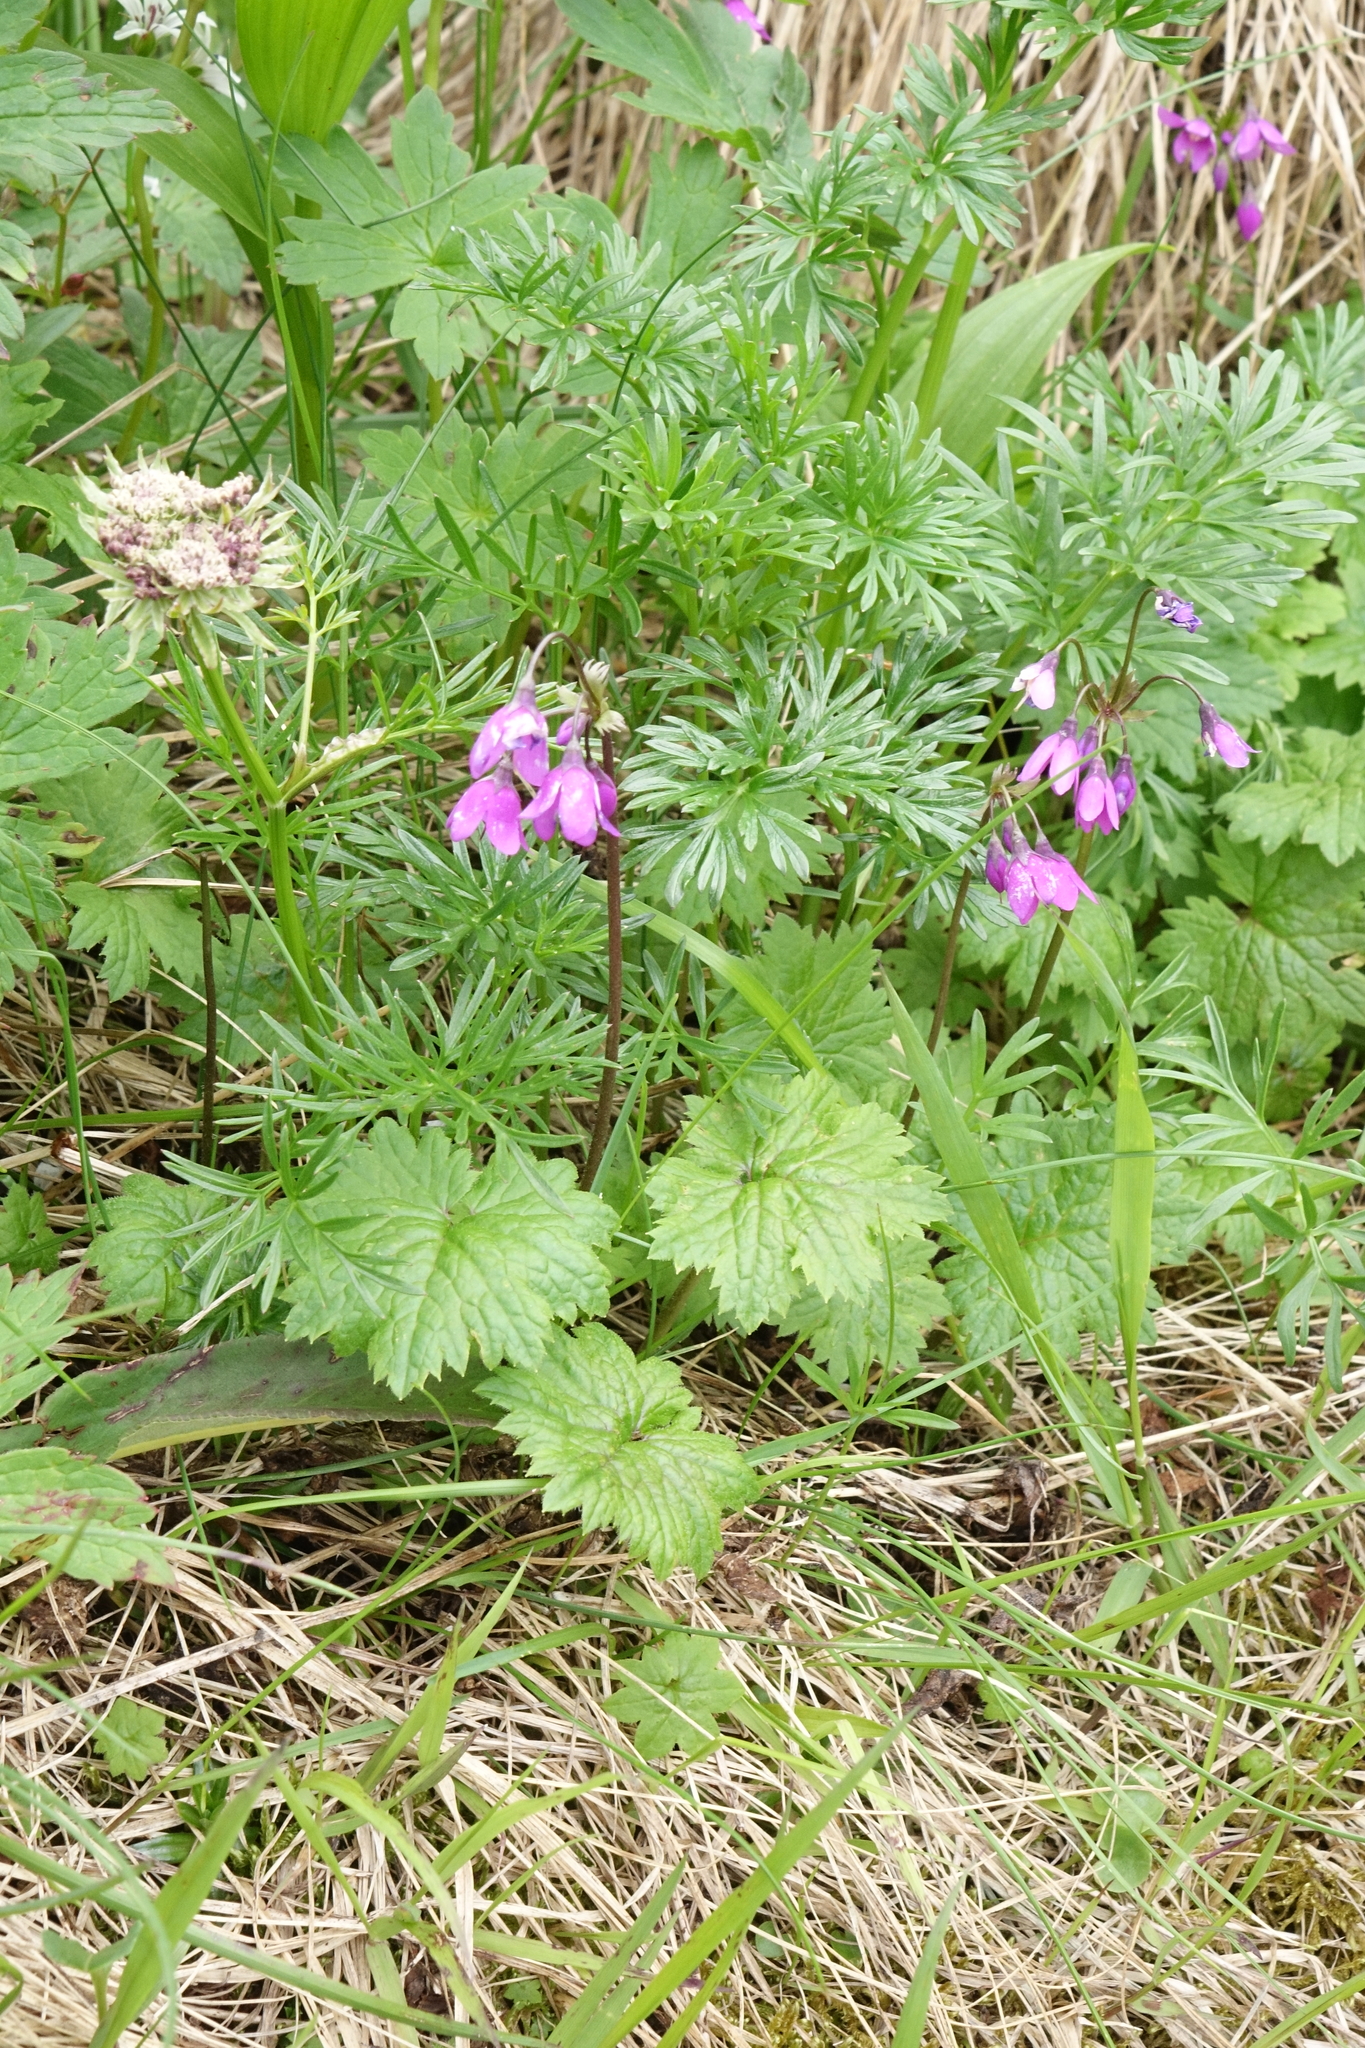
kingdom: Plantae
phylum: Tracheophyta
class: Magnoliopsida
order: Ericales
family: Primulaceae
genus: Primula
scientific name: Primula matthioli
